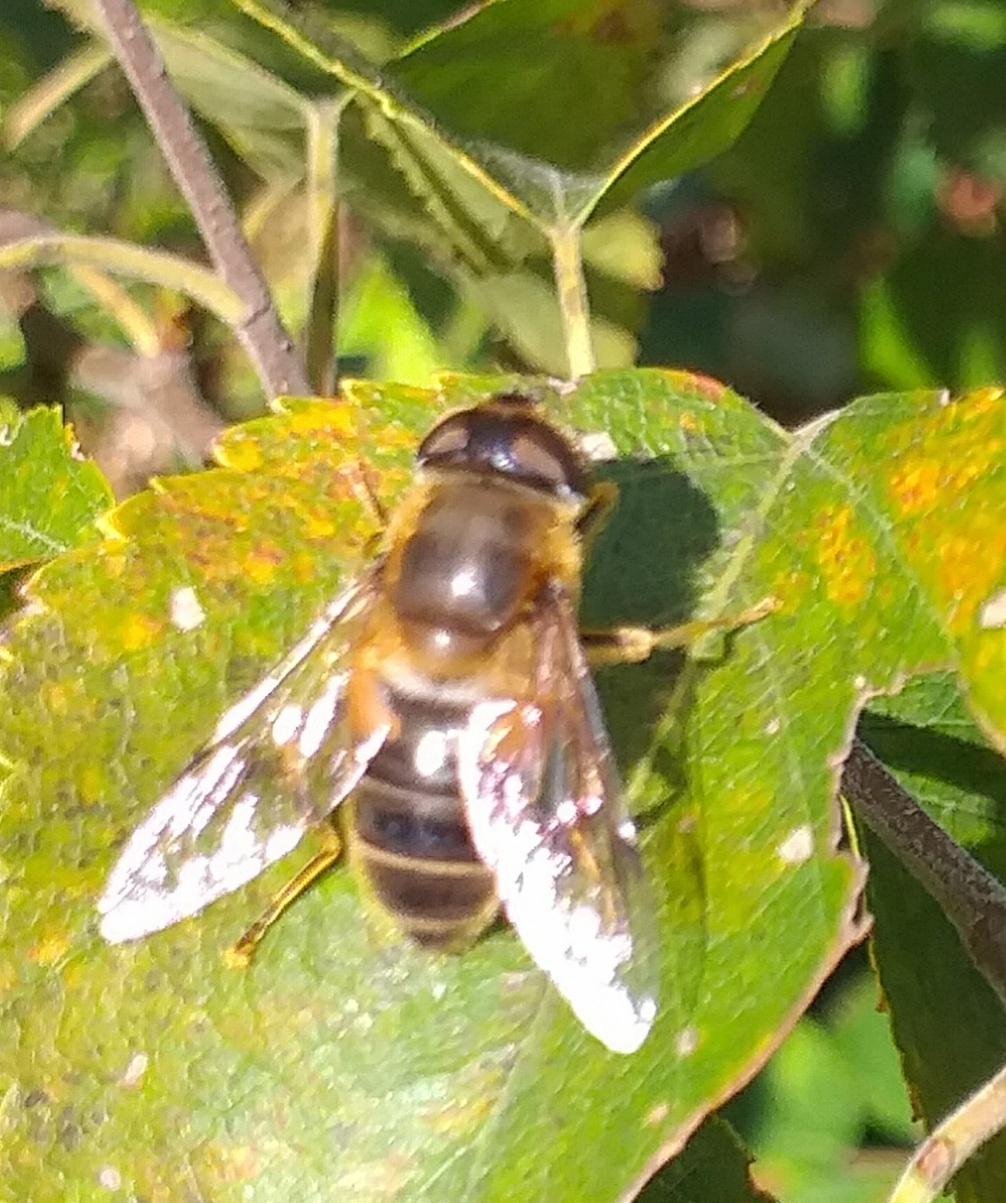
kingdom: Animalia
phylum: Arthropoda
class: Insecta
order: Diptera
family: Syrphidae
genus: Eristalis
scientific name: Eristalis pertinax
